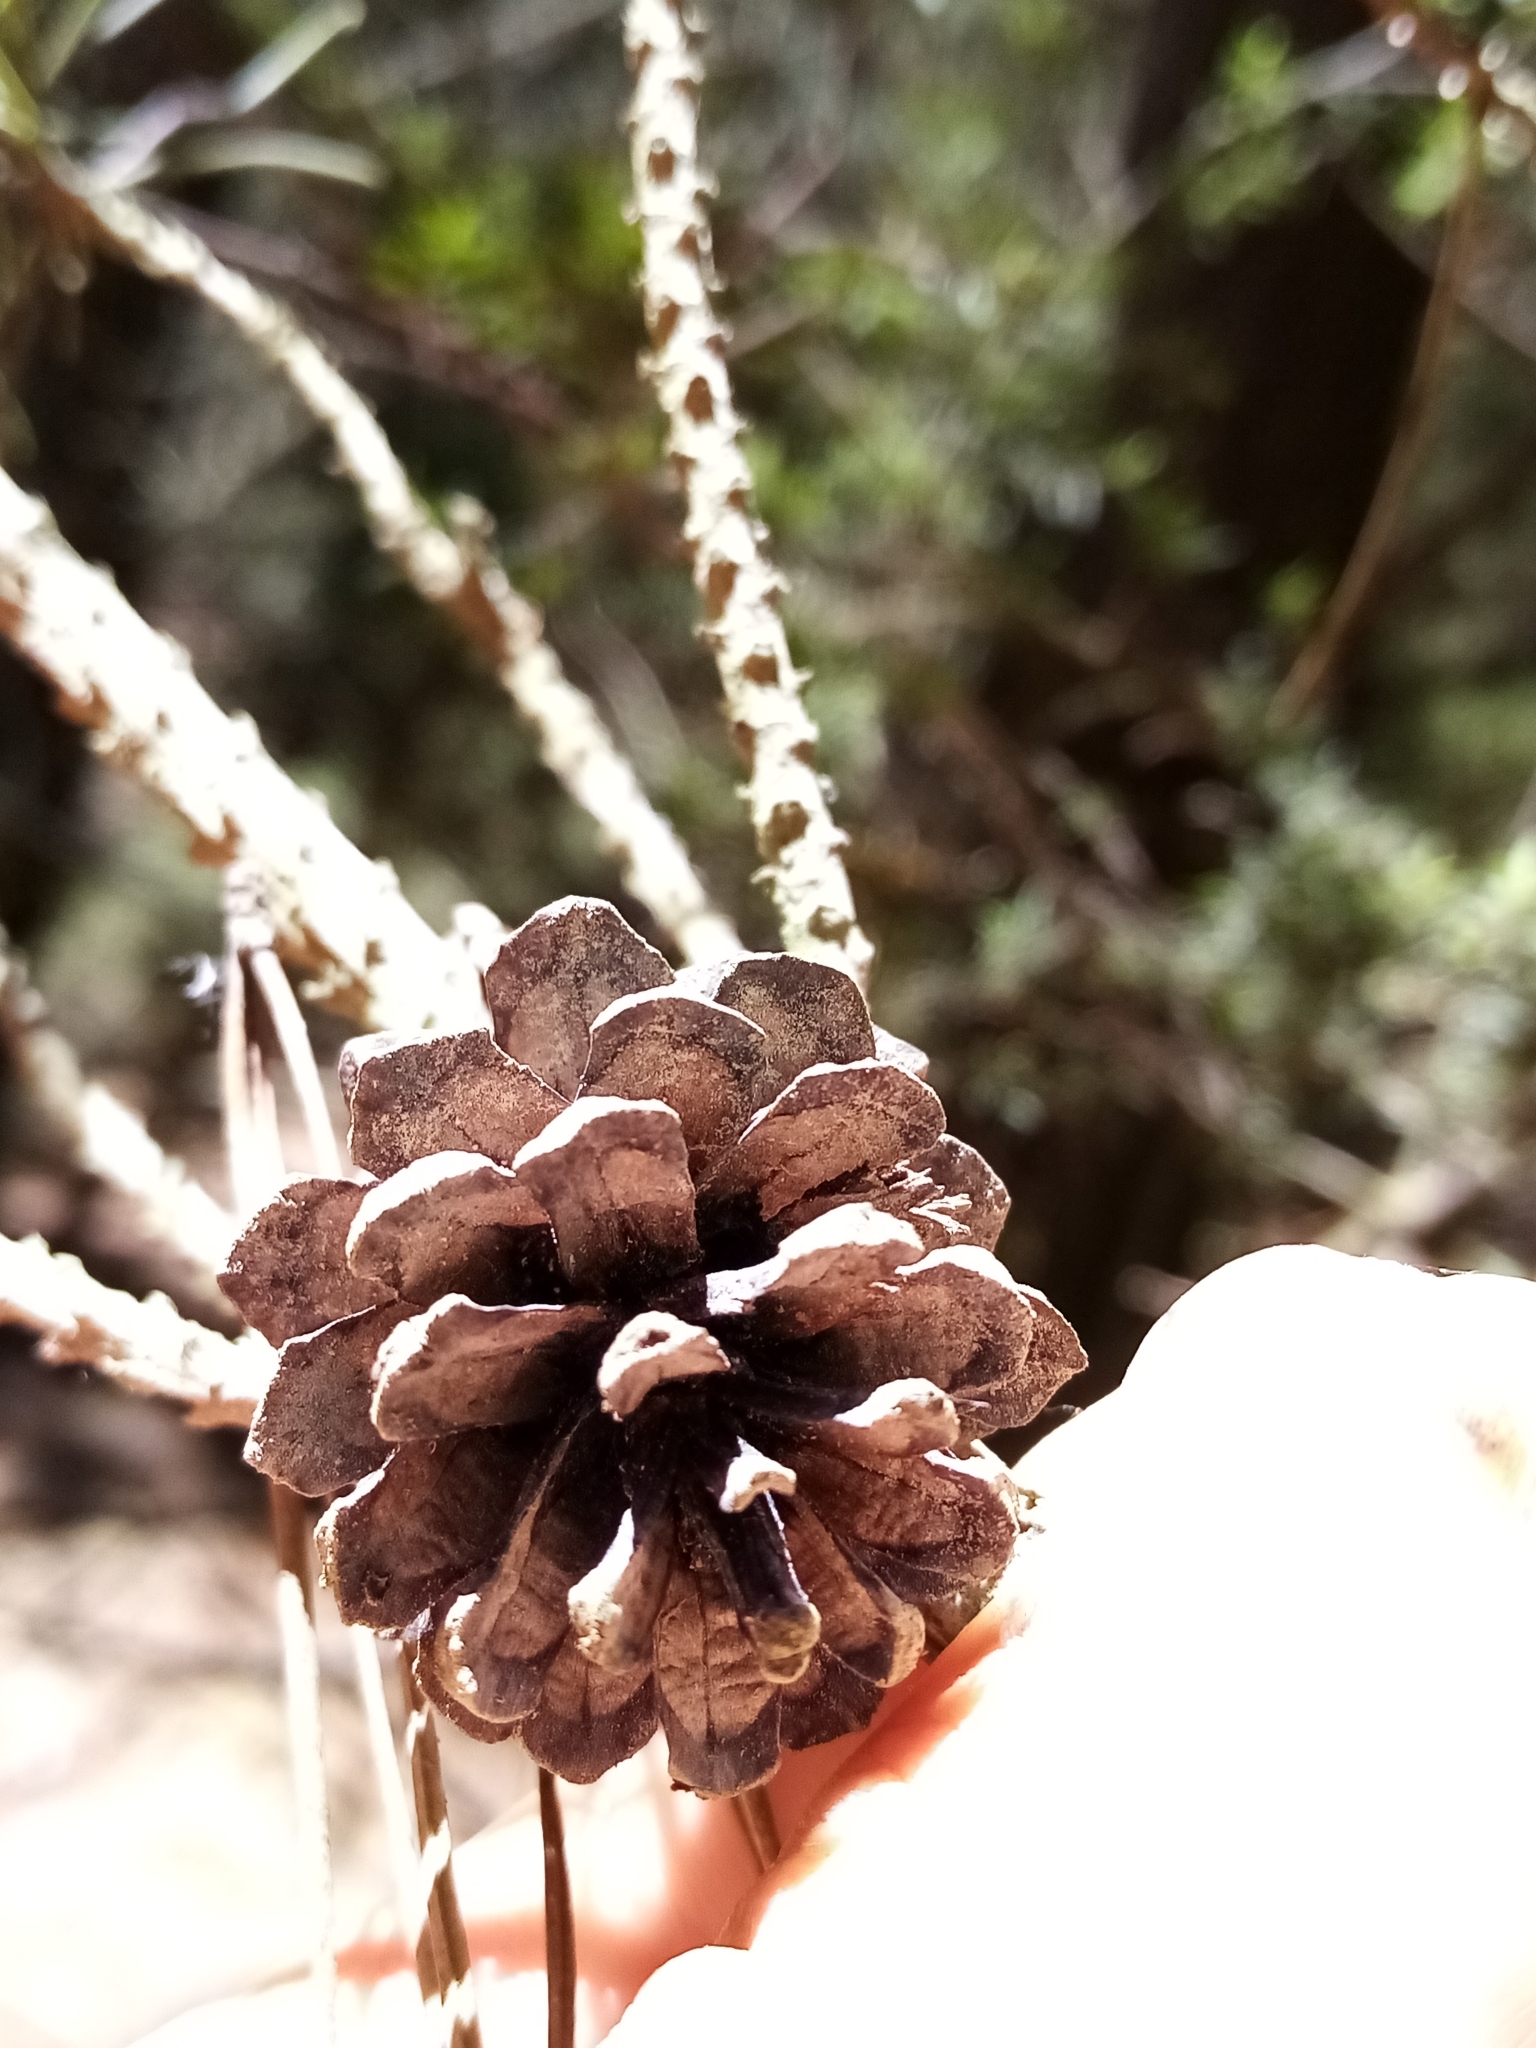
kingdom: Plantae
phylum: Tracheophyta
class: Pinopsida
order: Pinales
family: Pinaceae
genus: Pinus
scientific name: Pinus contorta
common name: Lodgepole pine
